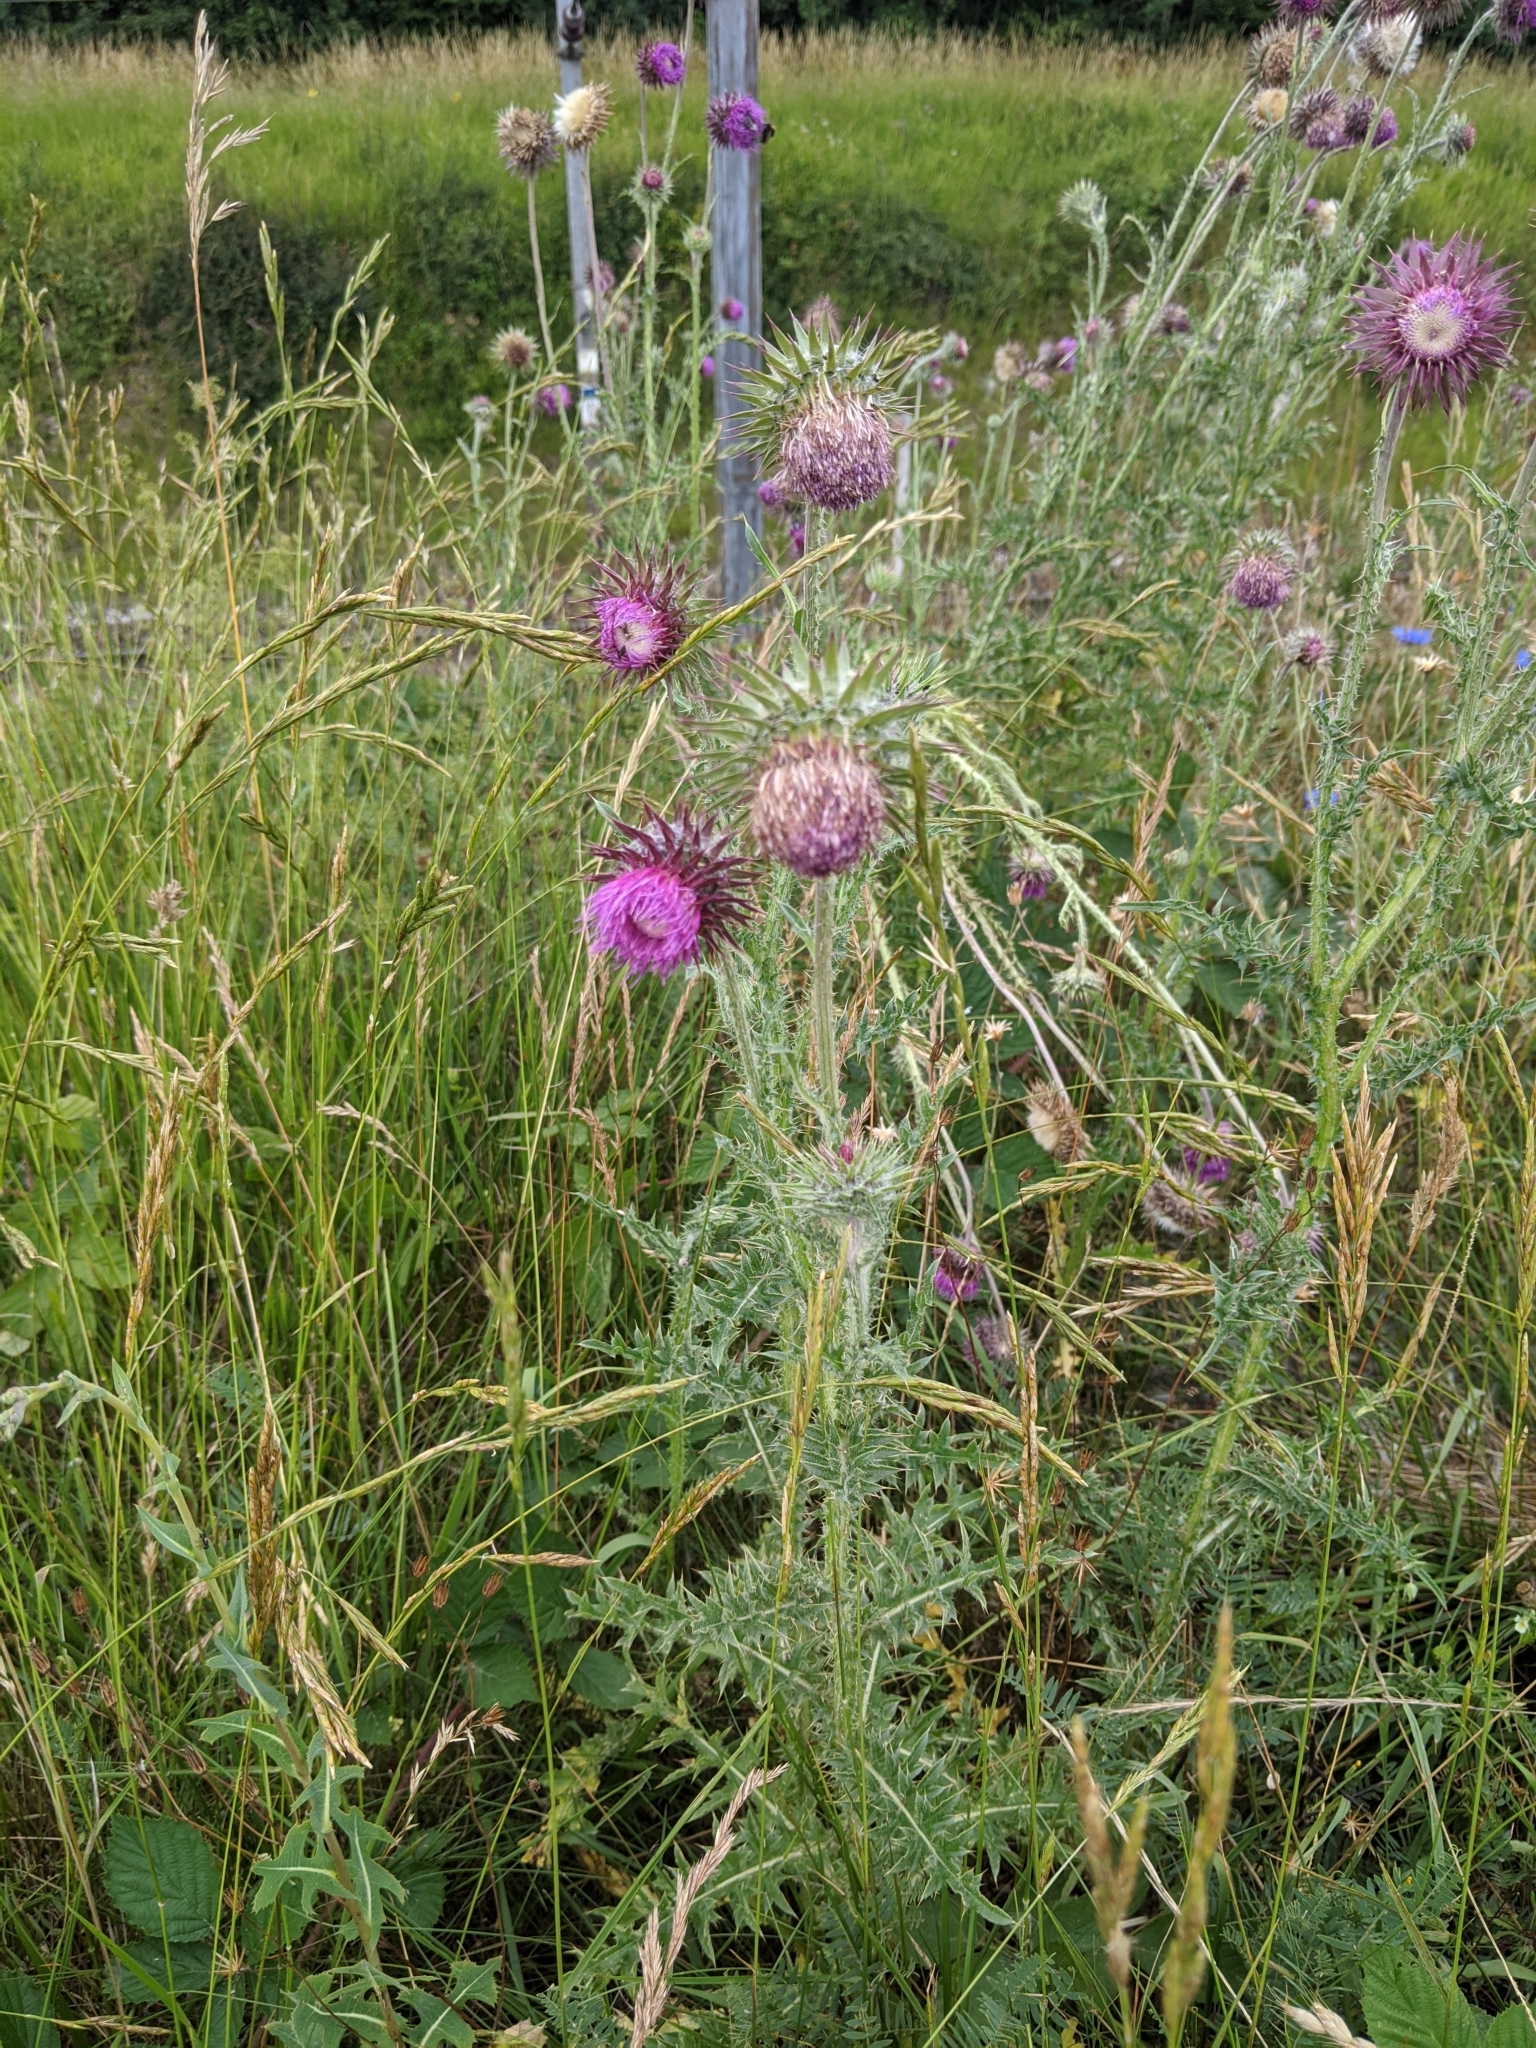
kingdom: Plantae
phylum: Tracheophyta
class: Magnoliopsida
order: Asterales
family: Asteraceae
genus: Carduus
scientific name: Carduus nutans
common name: Musk thistle
